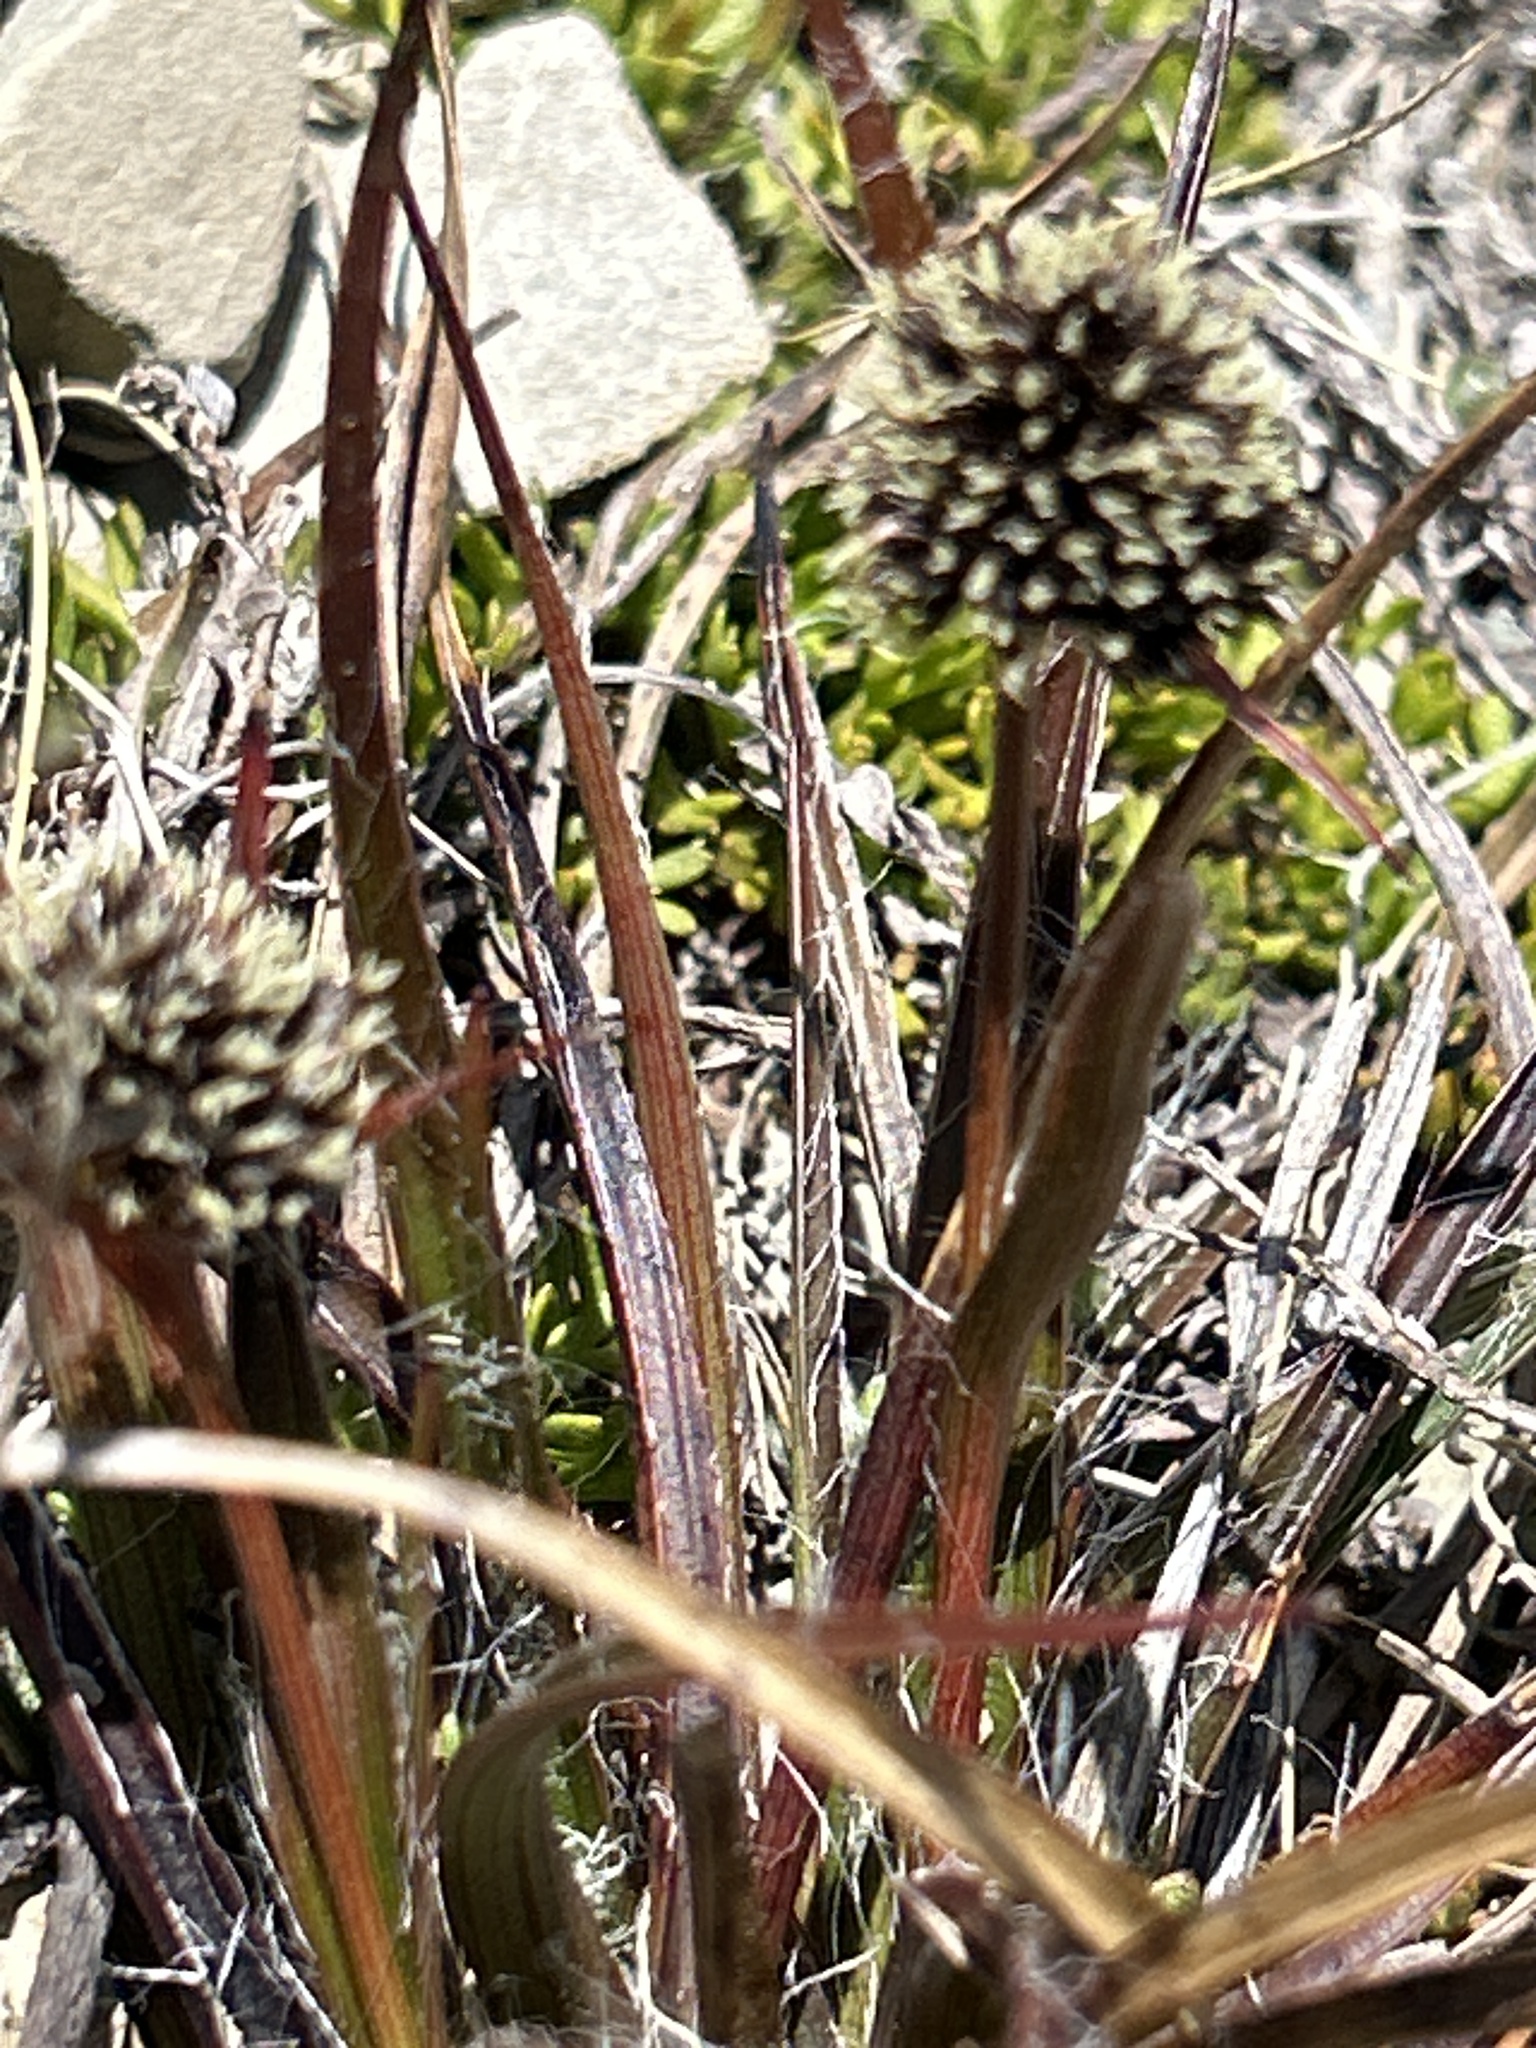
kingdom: Plantae
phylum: Tracheophyta
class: Liliopsida
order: Poales
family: Juncaceae
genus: Luzula
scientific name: Luzula rufa
